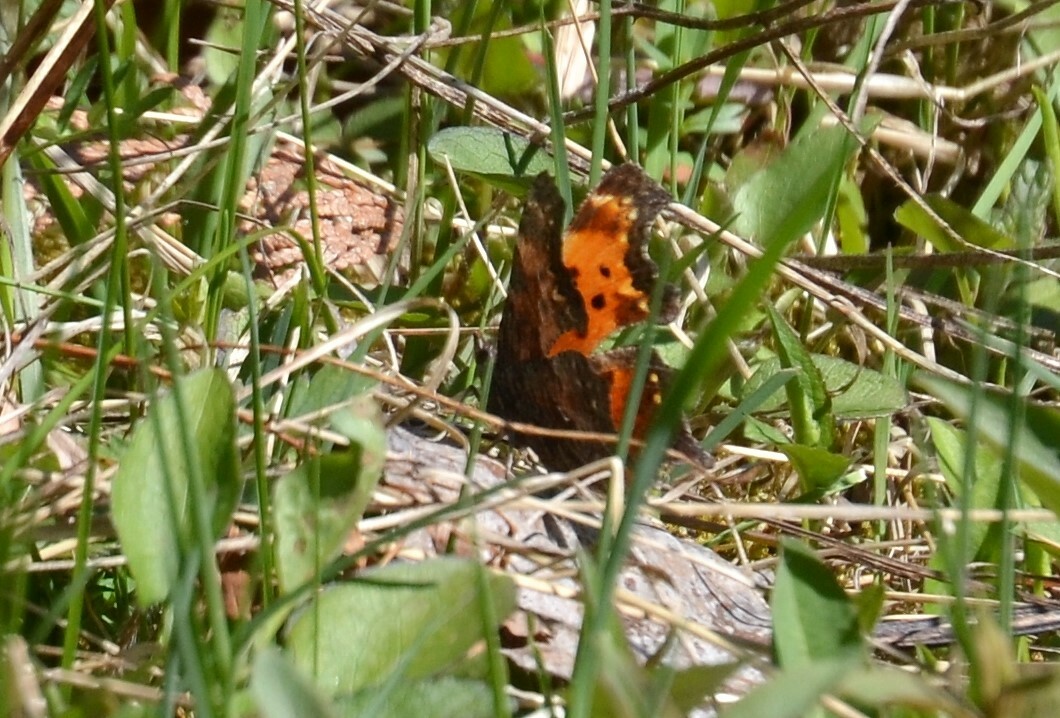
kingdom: Animalia
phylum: Arthropoda
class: Insecta
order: Lepidoptera
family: Nymphalidae
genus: Polygonia
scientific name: Polygonia progne
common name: Gray comma
